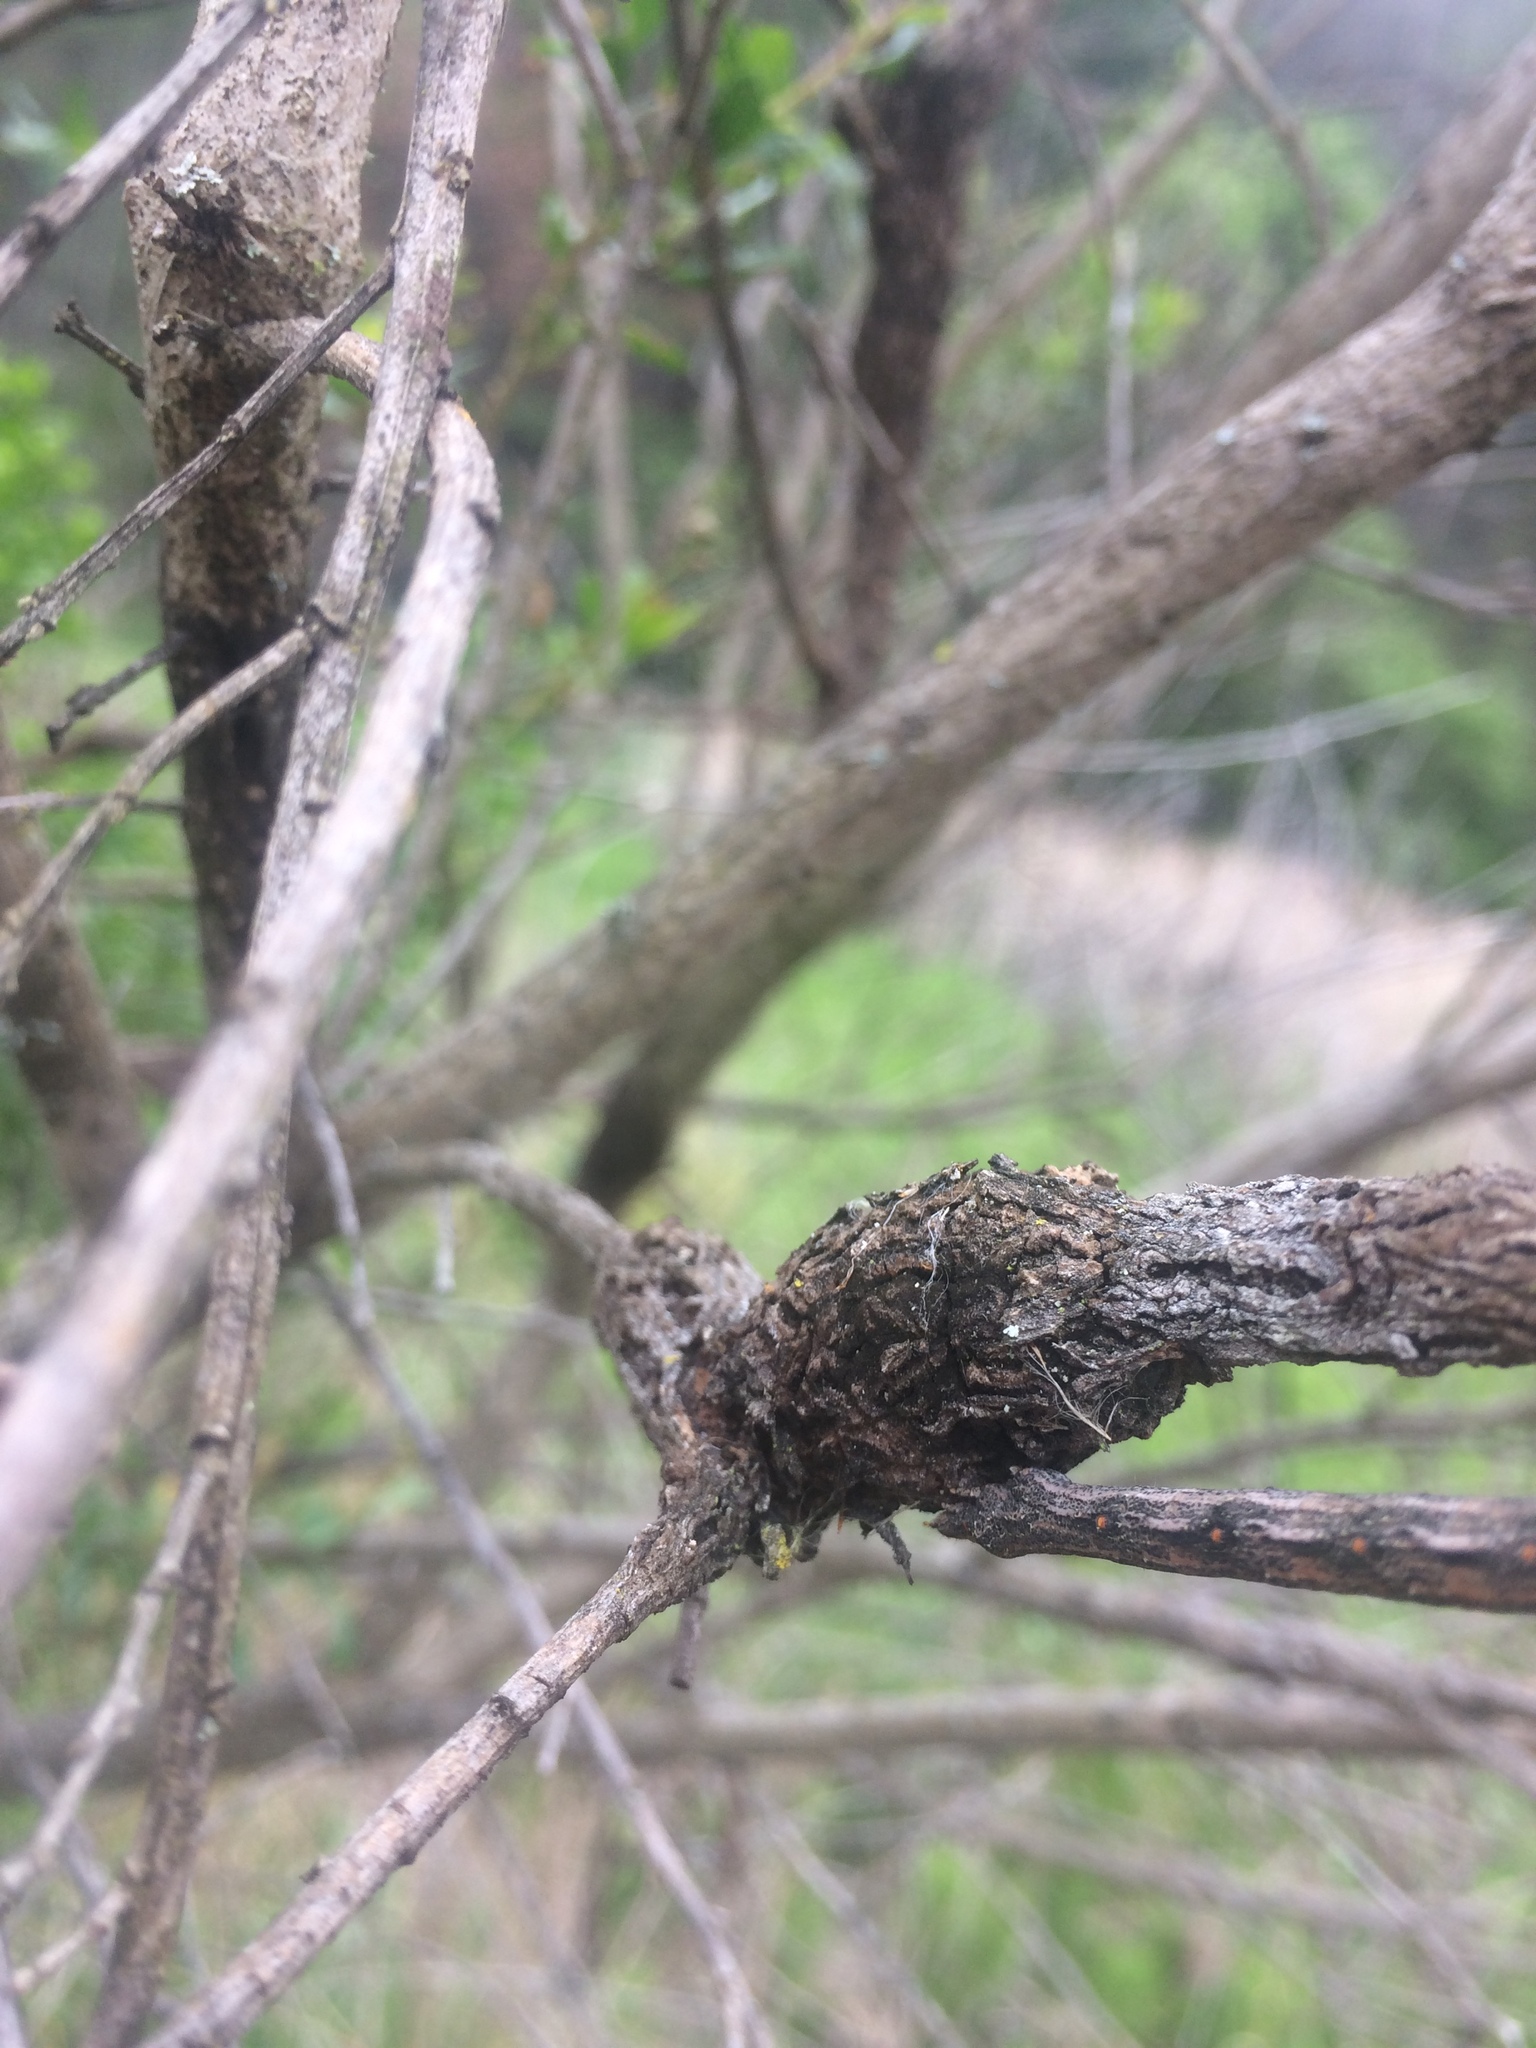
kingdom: Animalia
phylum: Arthropoda
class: Insecta
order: Lepidoptera
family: Gelechiidae
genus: Gnorimoschema
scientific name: Gnorimoschema baccharisella
